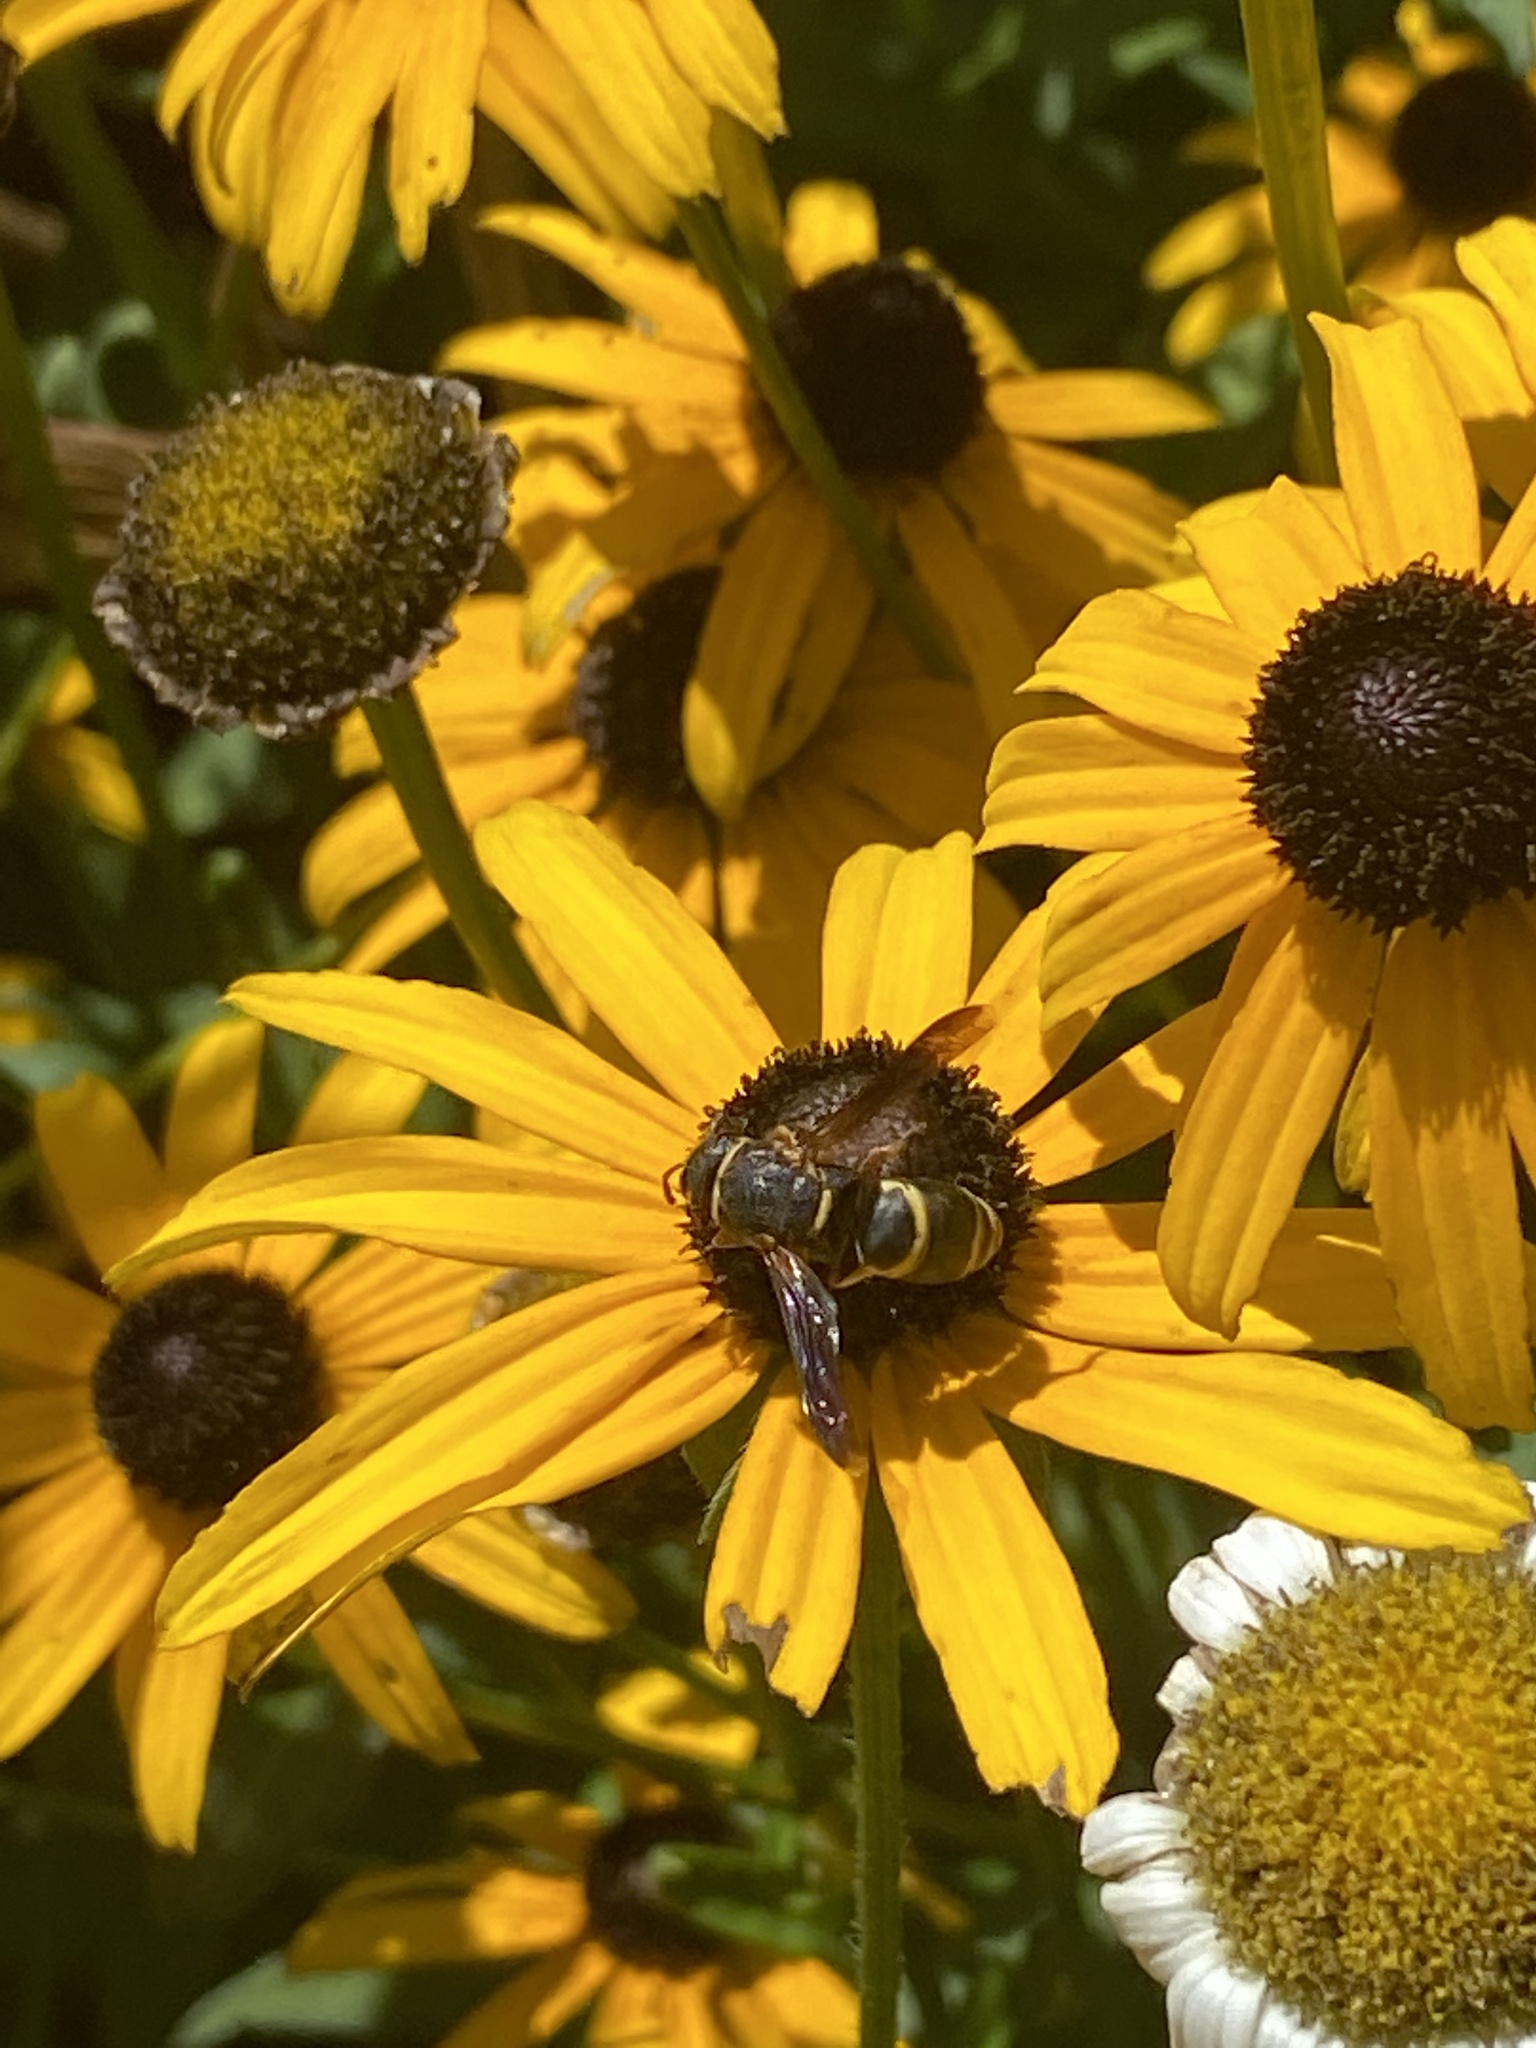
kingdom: Animalia
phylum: Arthropoda
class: Insecta
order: Hymenoptera
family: Eumenidae
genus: Euodynerus
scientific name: Euodynerus hidalgo
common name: Wasp
